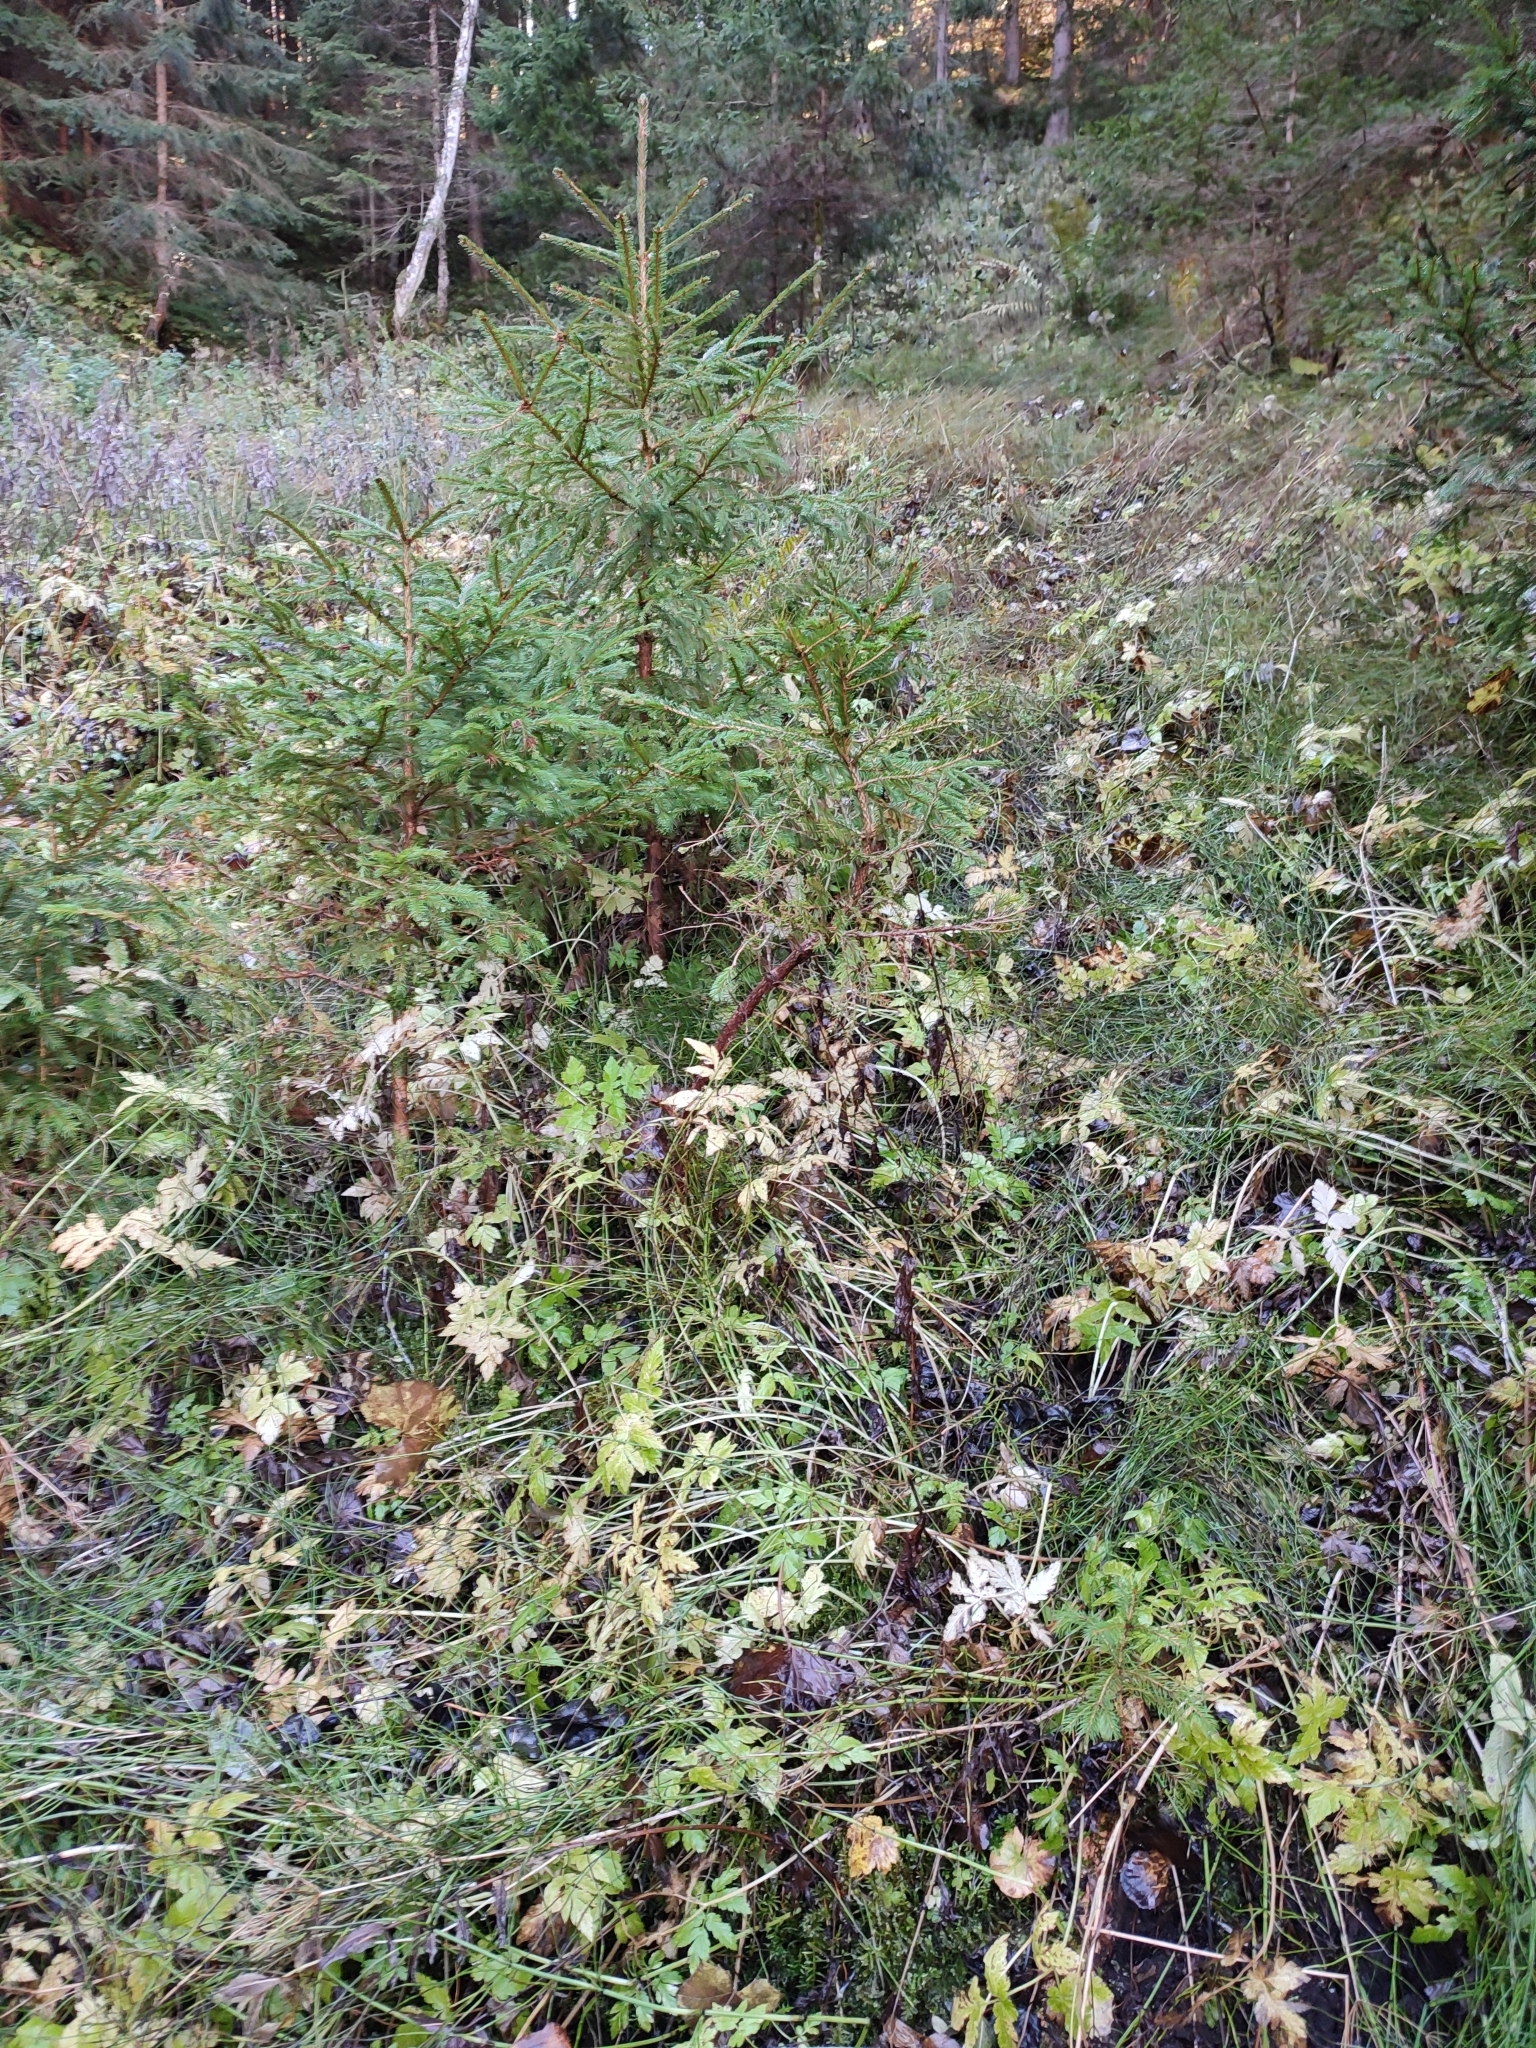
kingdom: Plantae
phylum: Tracheophyta
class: Polypodiopsida
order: Equisetales
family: Equisetaceae
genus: Equisetum
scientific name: Equisetum palustre
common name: Marsh horsetail
